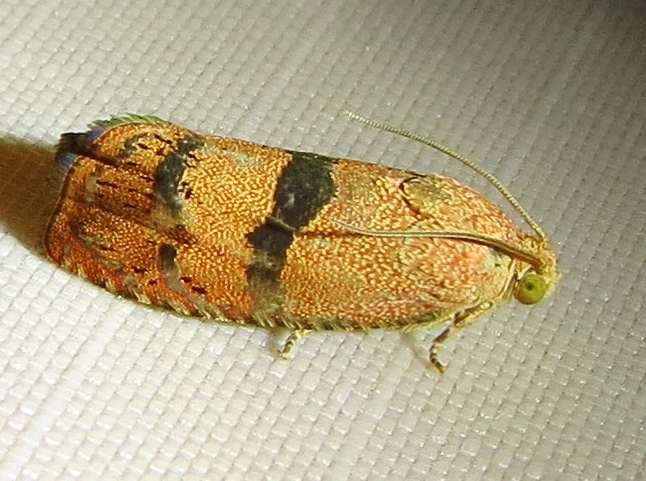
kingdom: Animalia
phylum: Arthropoda
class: Insecta
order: Lepidoptera
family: Tortricidae
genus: Cydia
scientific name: Cydia latiferreana
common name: Filbertworm moth
